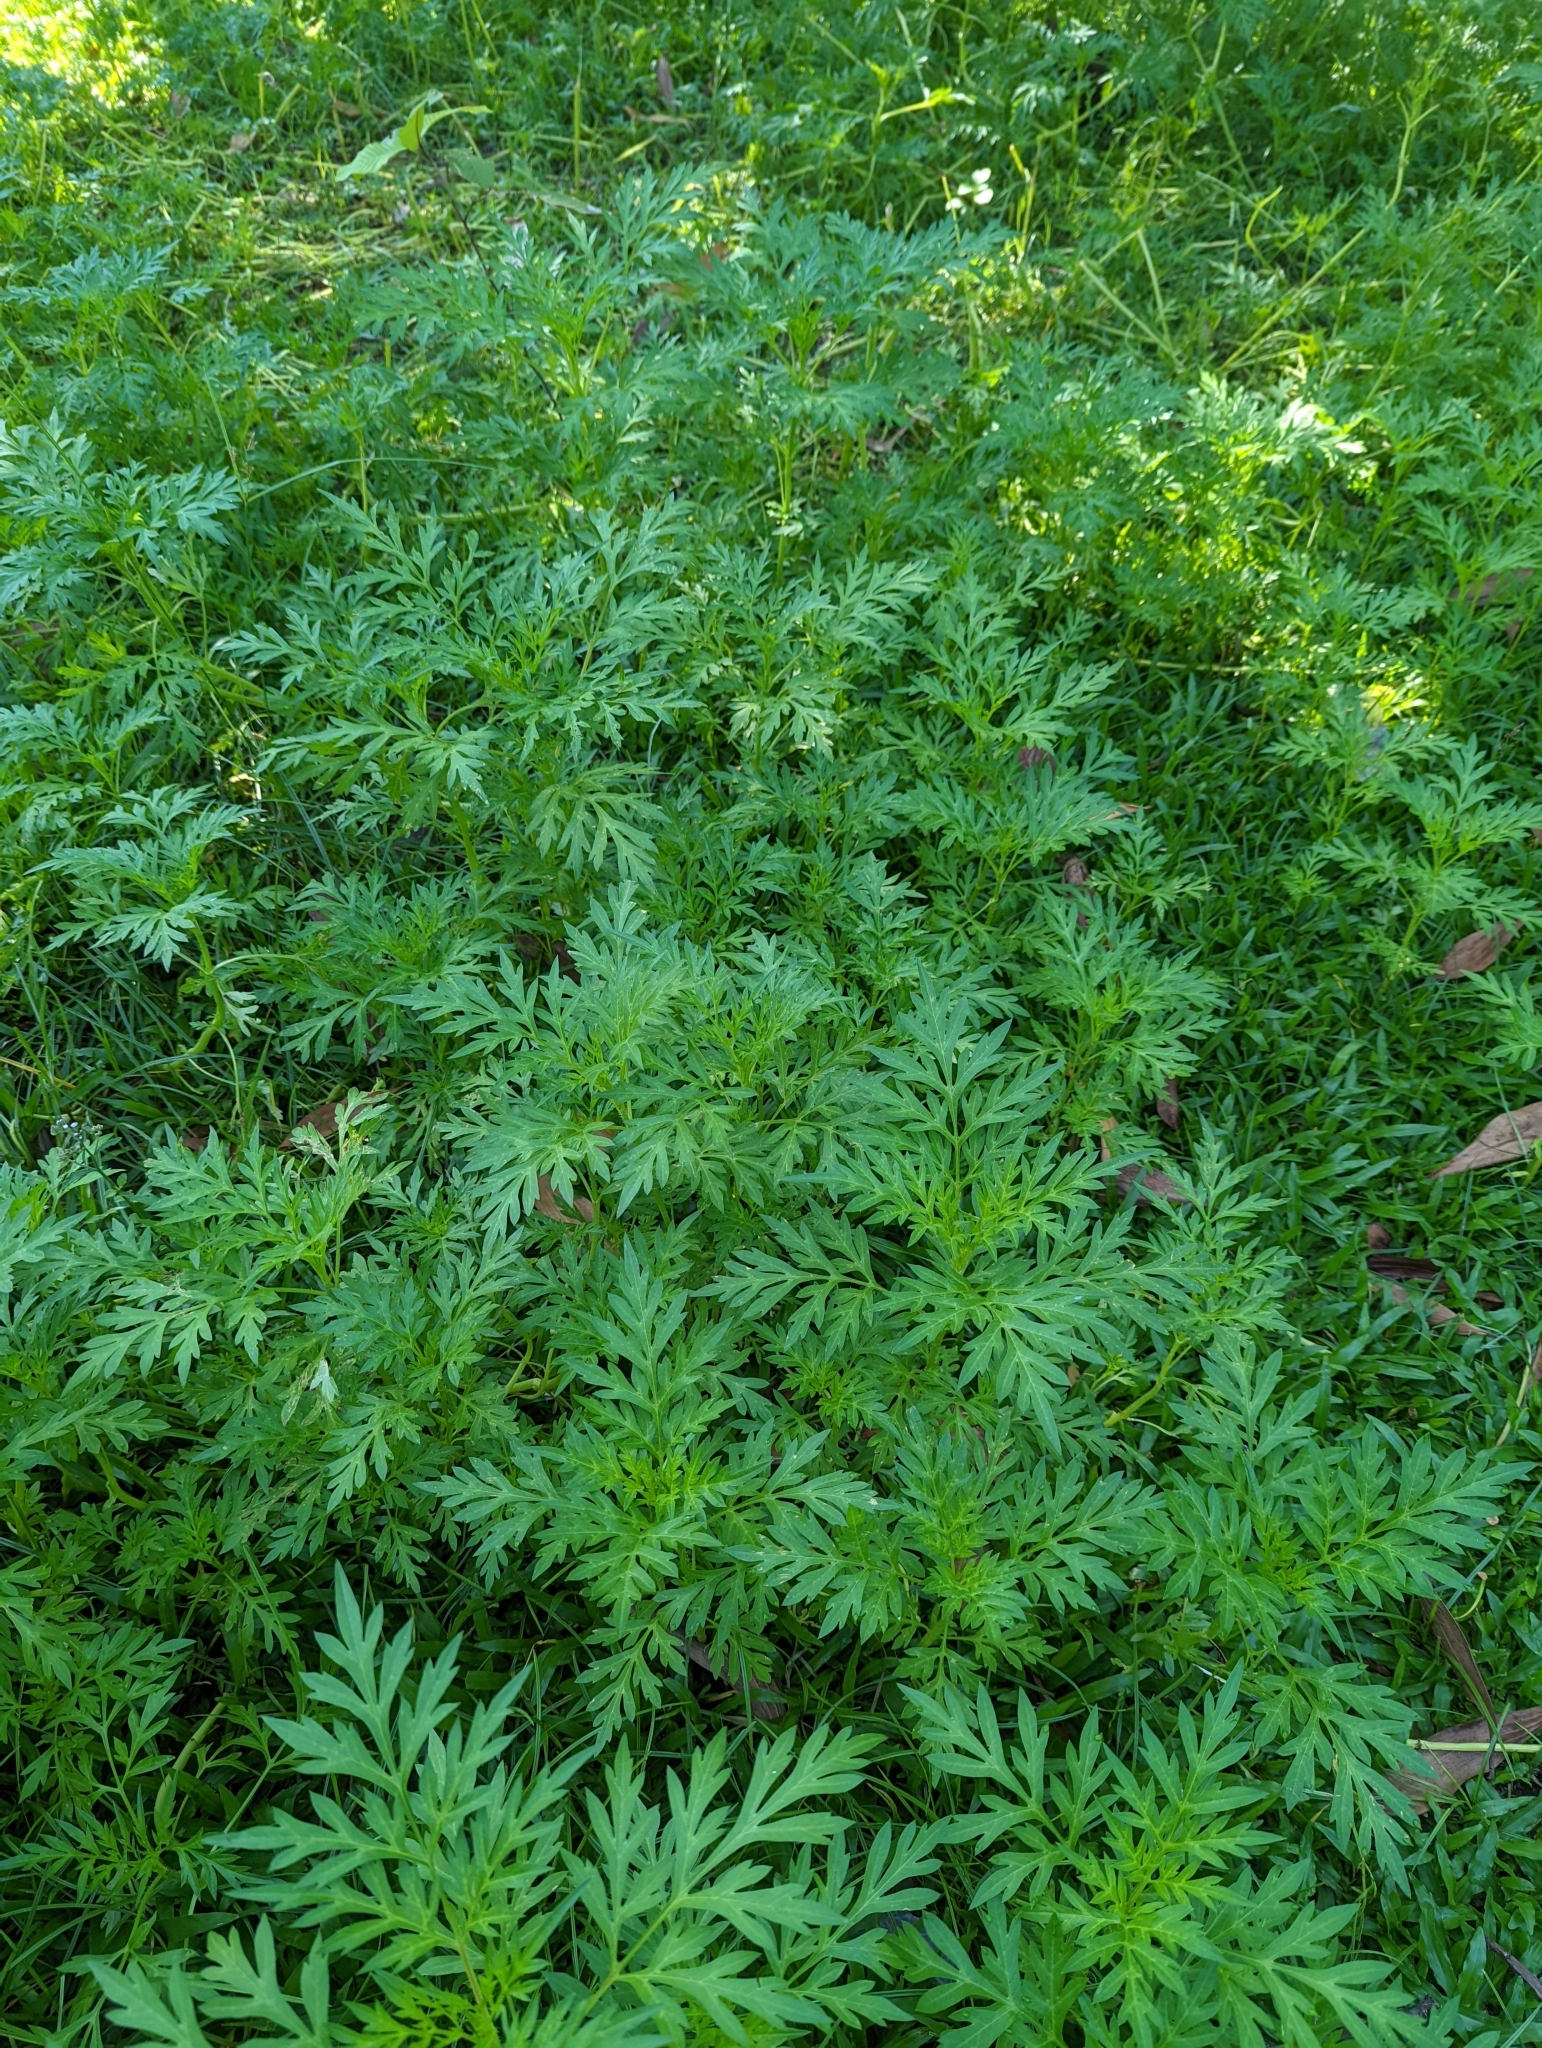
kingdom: Plantae
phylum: Tracheophyta
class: Magnoliopsida
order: Asterales
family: Asteraceae
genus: Cosmos
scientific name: Cosmos sulphureus
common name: Sulphur cosmos
